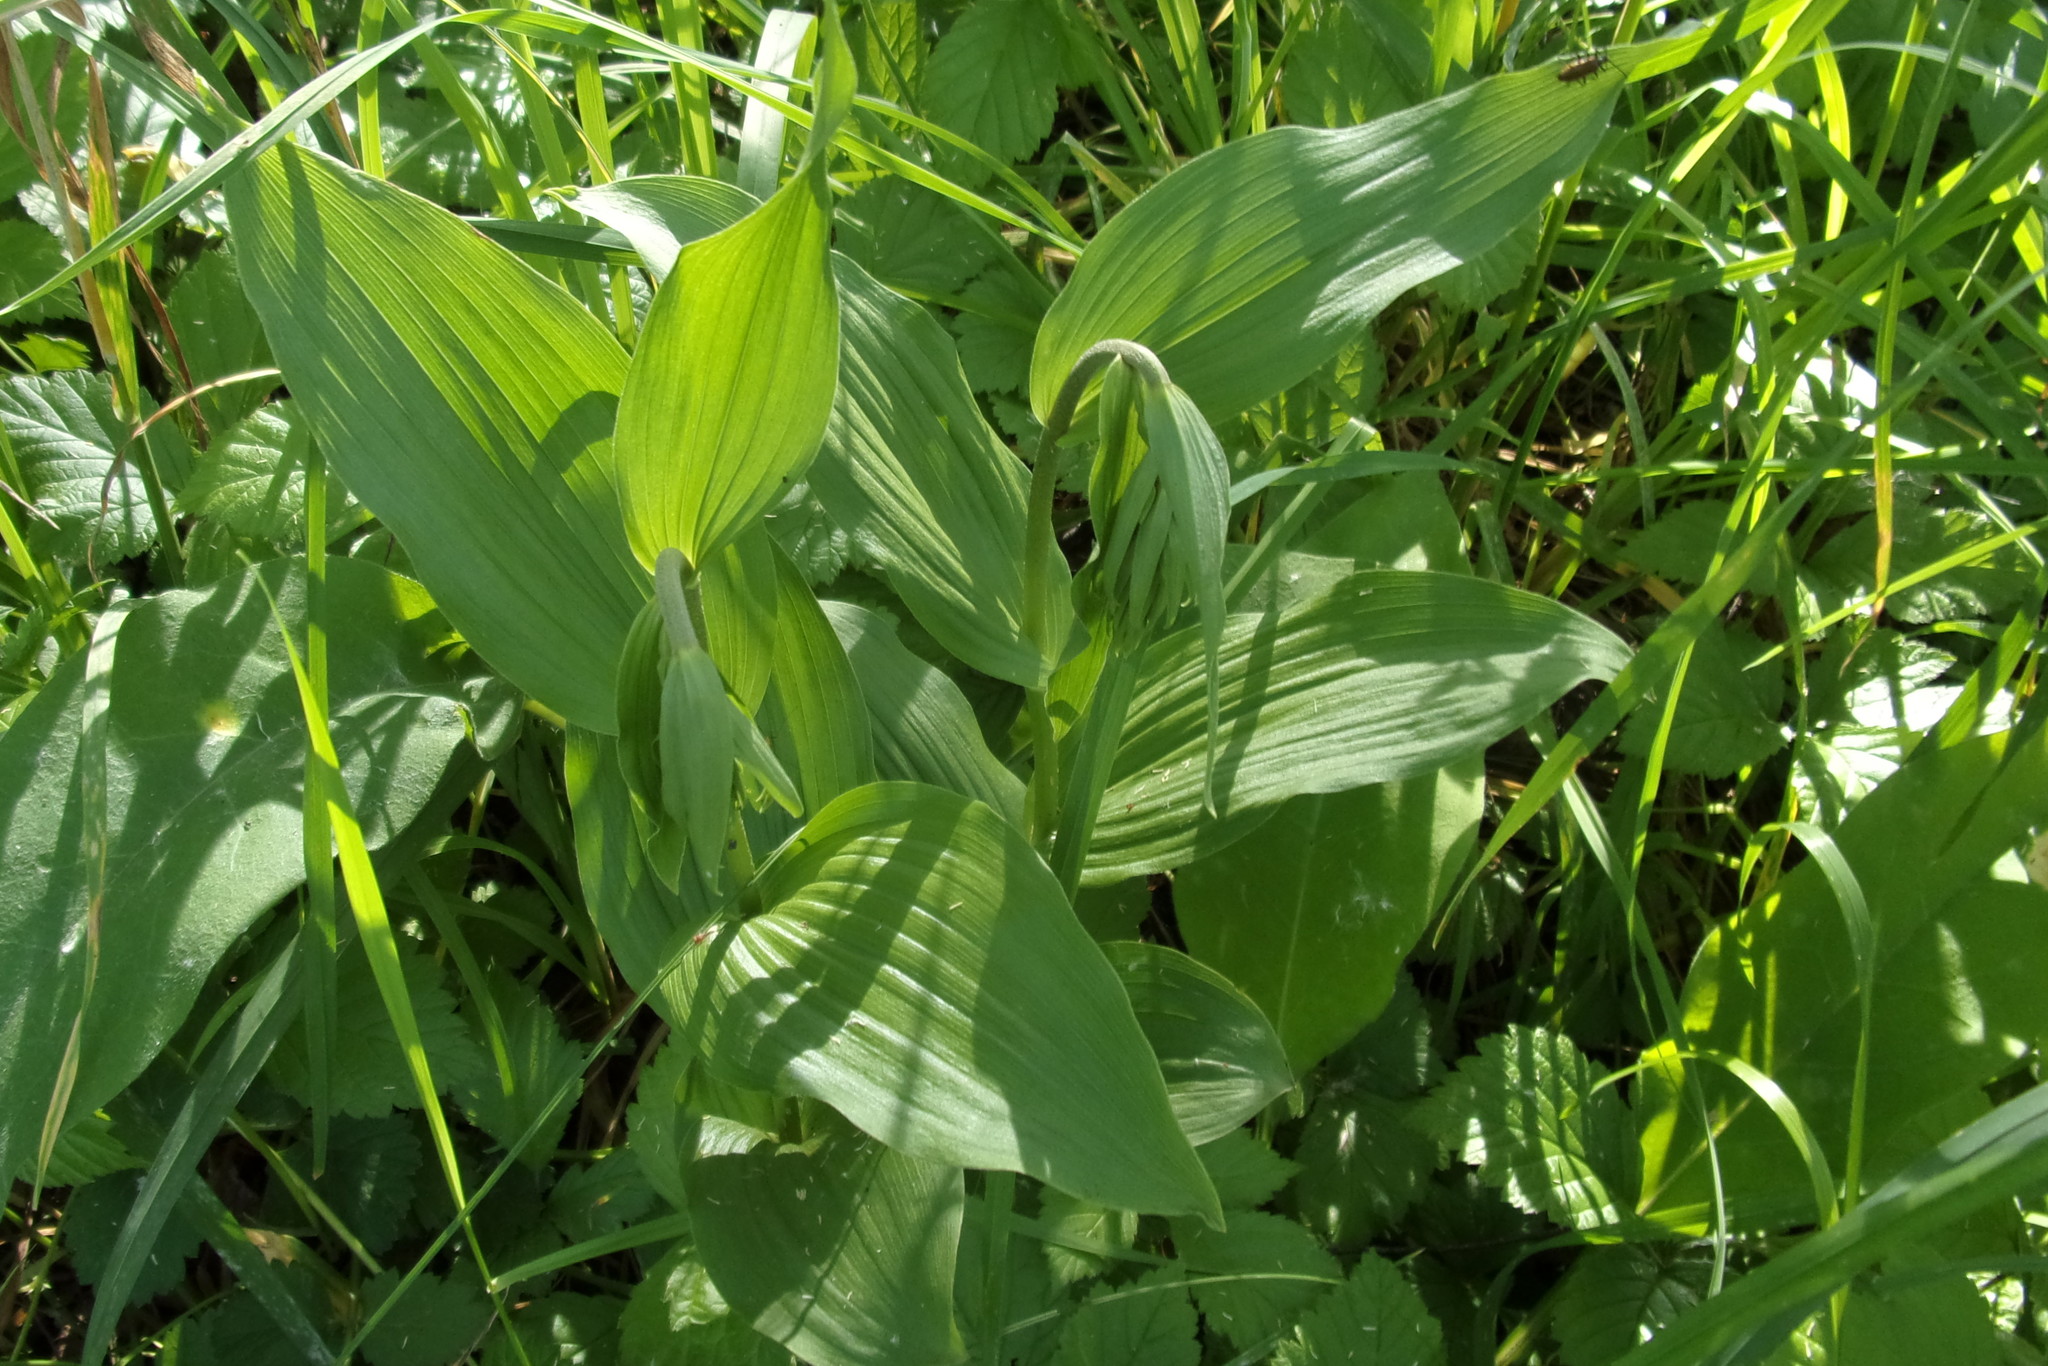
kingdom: Plantae
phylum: Tracheophyta
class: Liliopsida
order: Asparagales
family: Orchidaceae
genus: Epipactis
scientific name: Epipactis helleborine
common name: Broad-leaved helleborine
